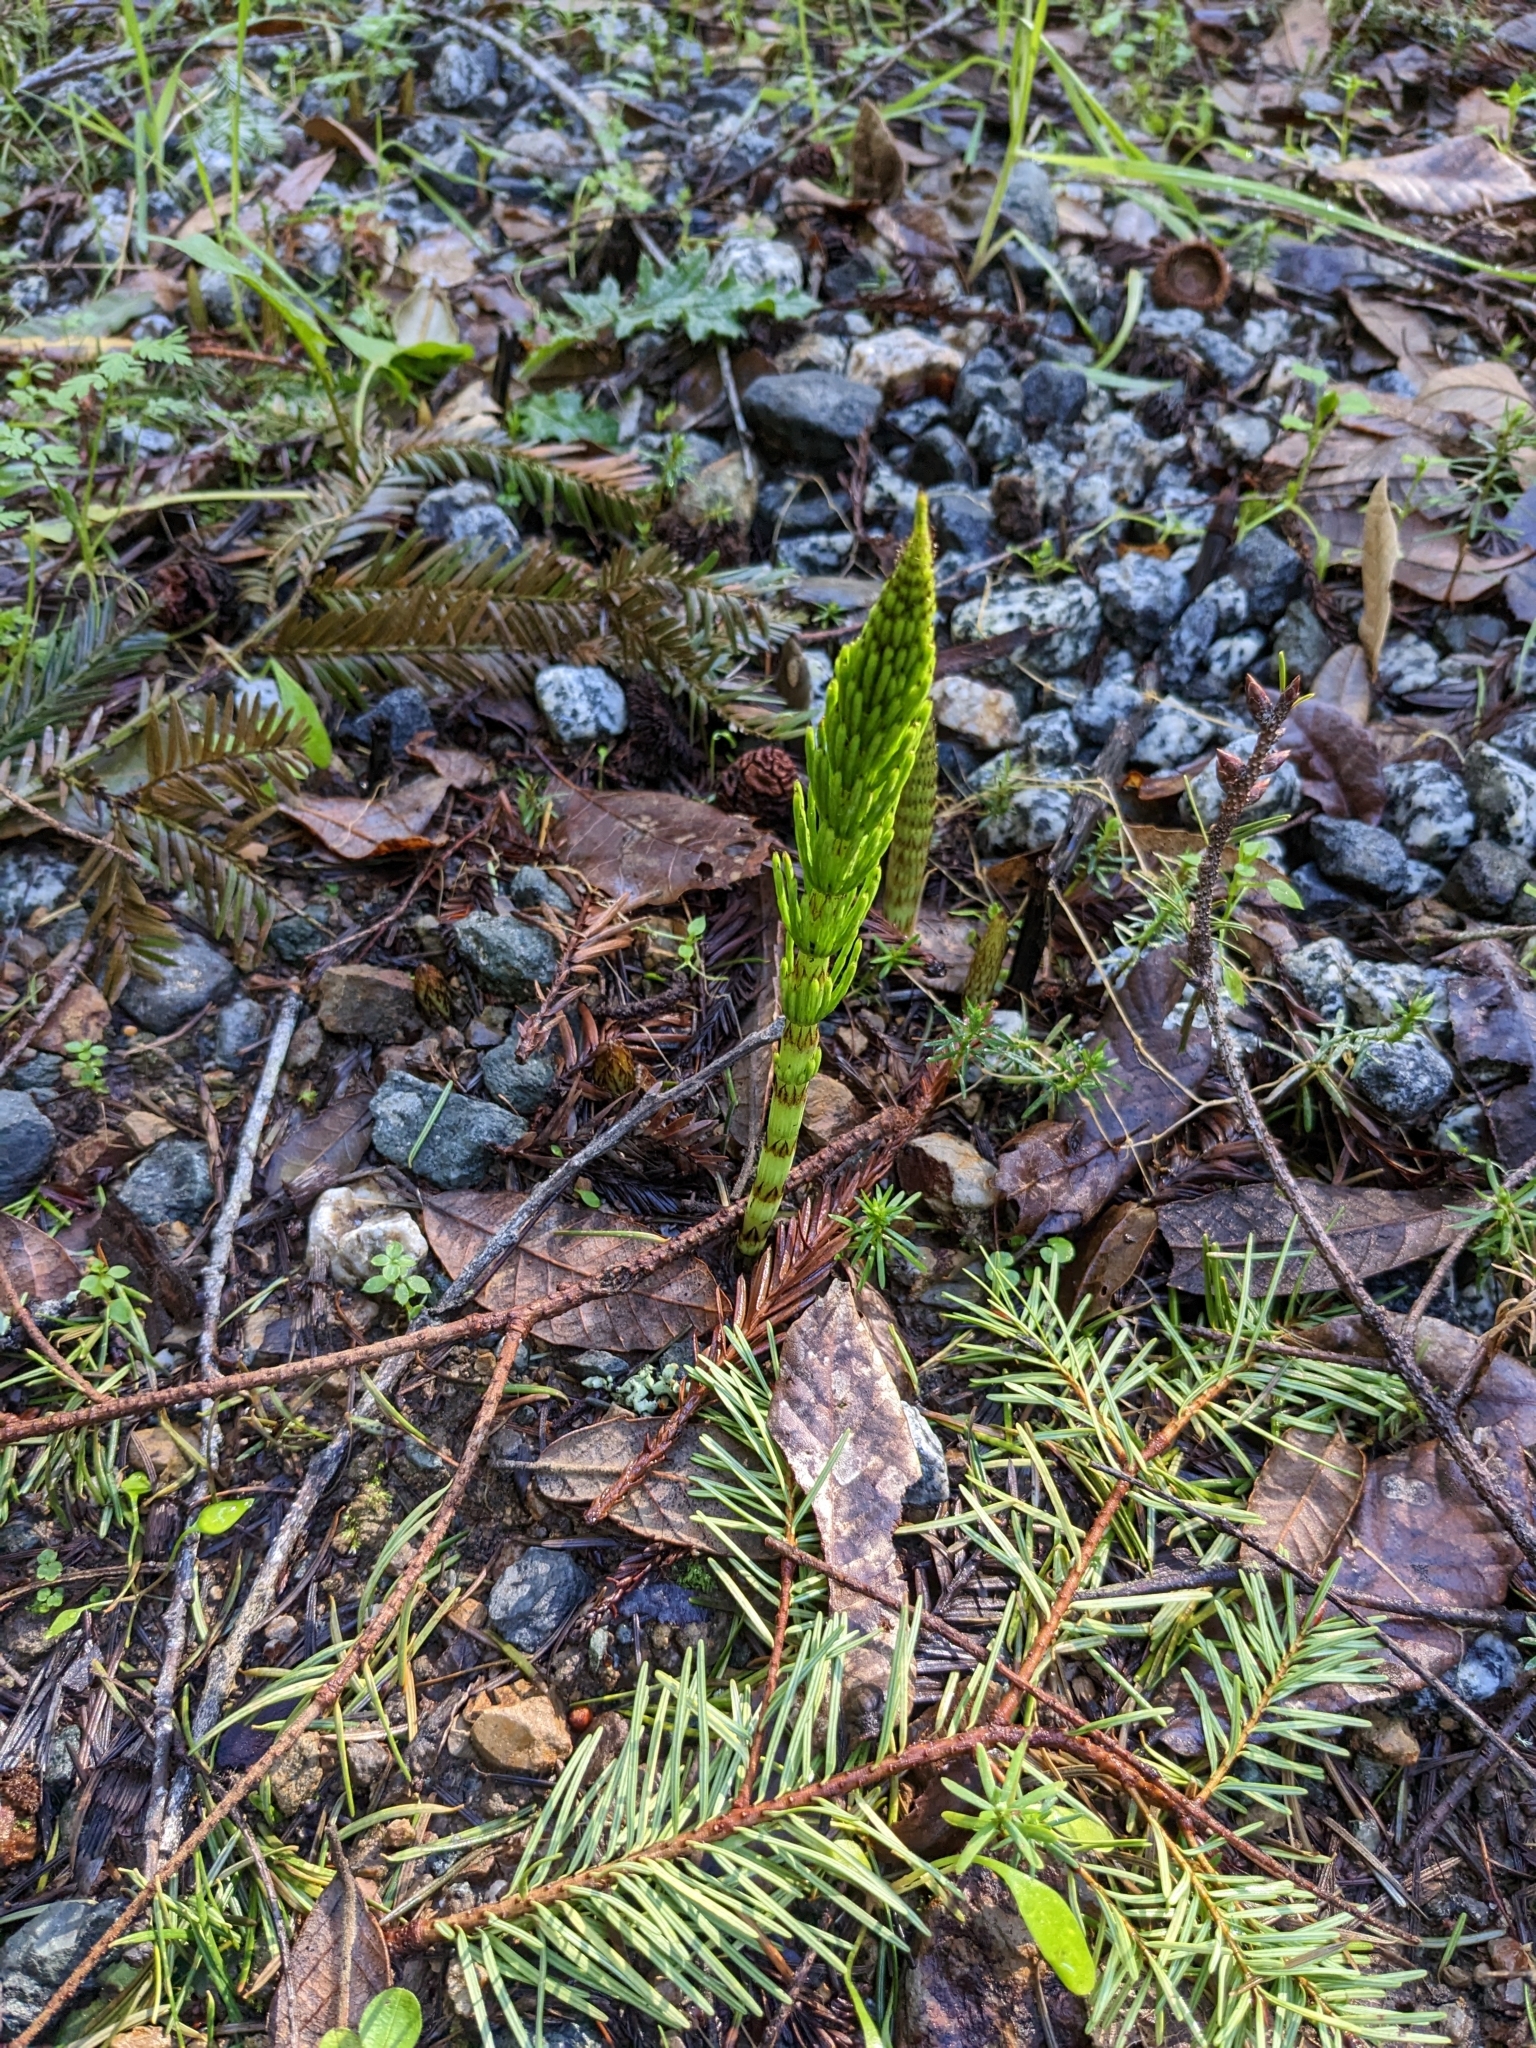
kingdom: Plantae
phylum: Tracheophyta
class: Polypodiopsida
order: Equisetales
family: Equisetaceae
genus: Equisetum
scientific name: Equisetum braunii
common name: Braun's horsetail
